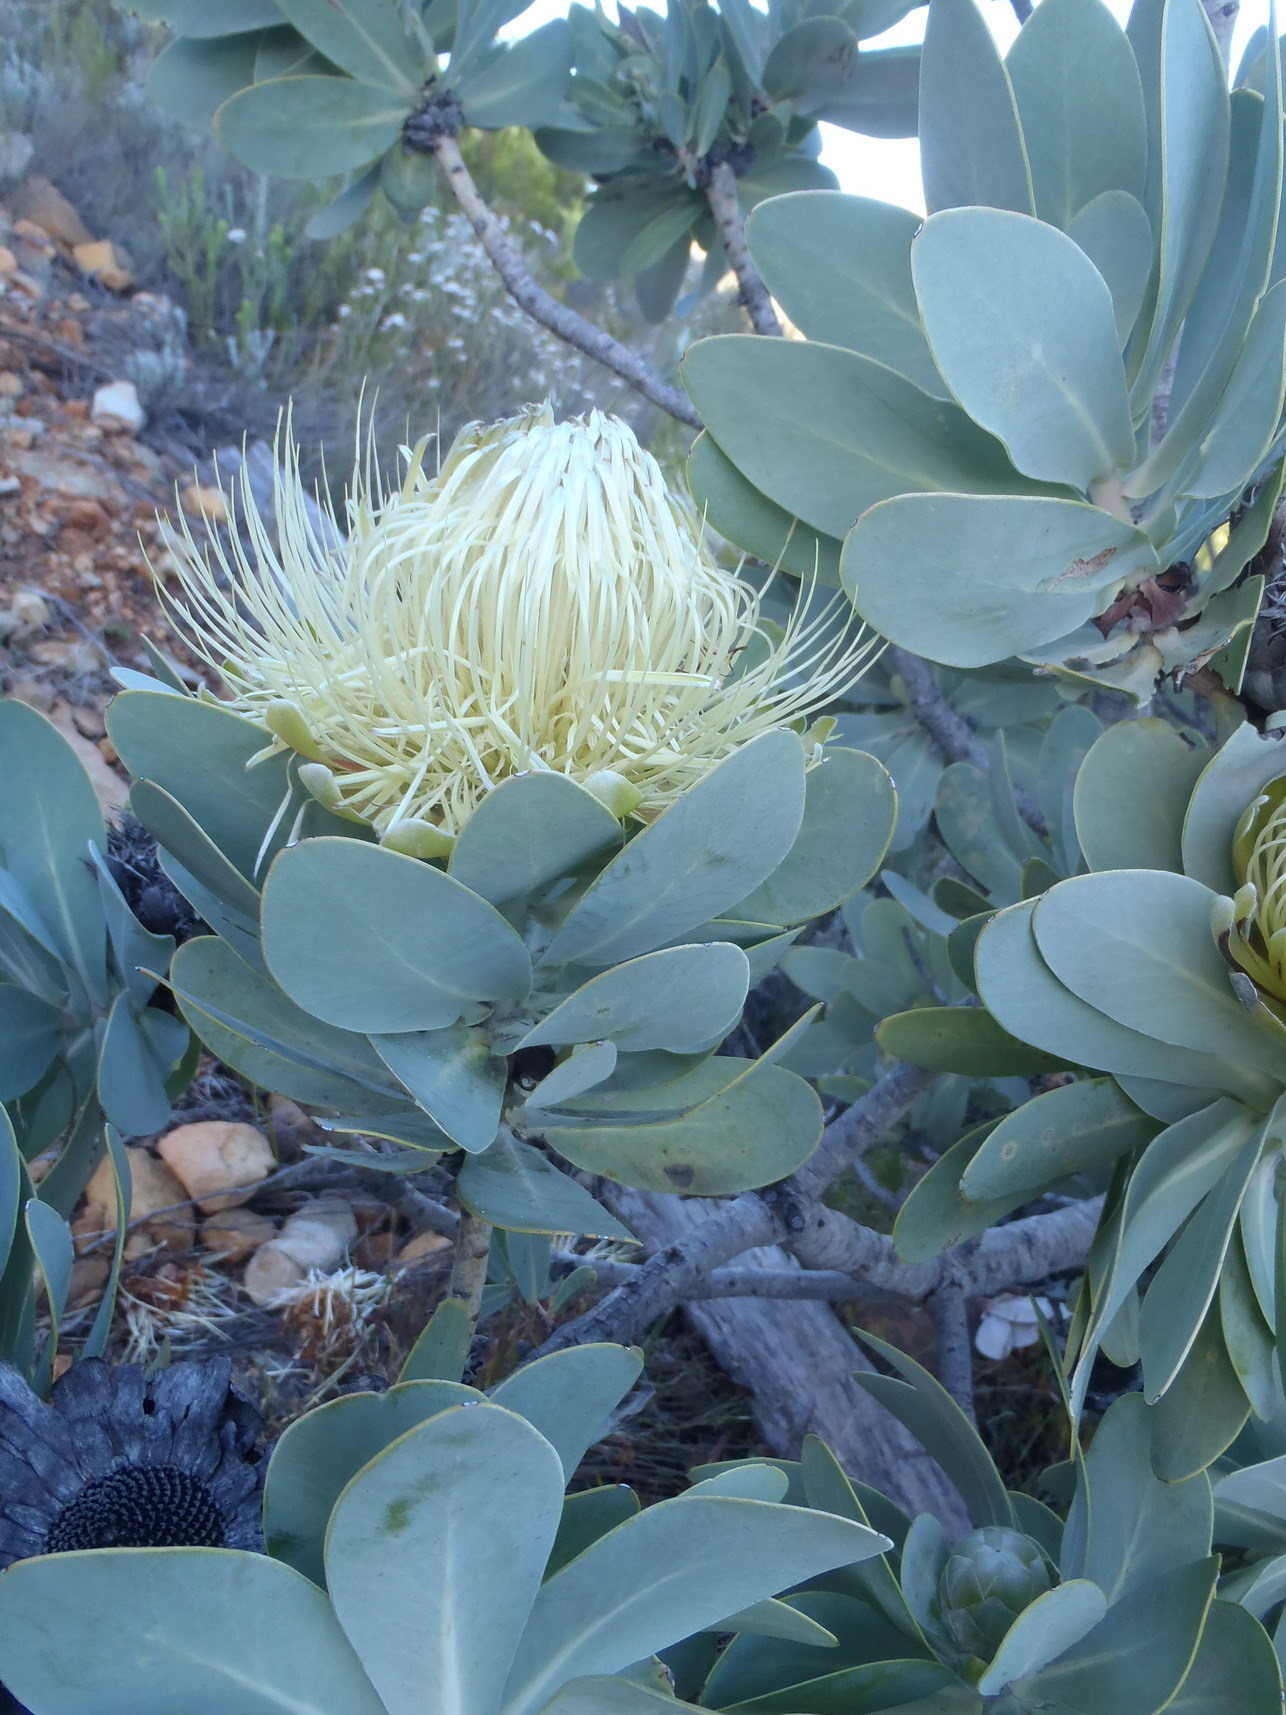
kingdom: Plantae
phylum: Tracheophyta
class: Magnoliopsida
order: Proteales
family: Proteaceae
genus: Protea
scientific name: Protea nitida
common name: Tree protea
